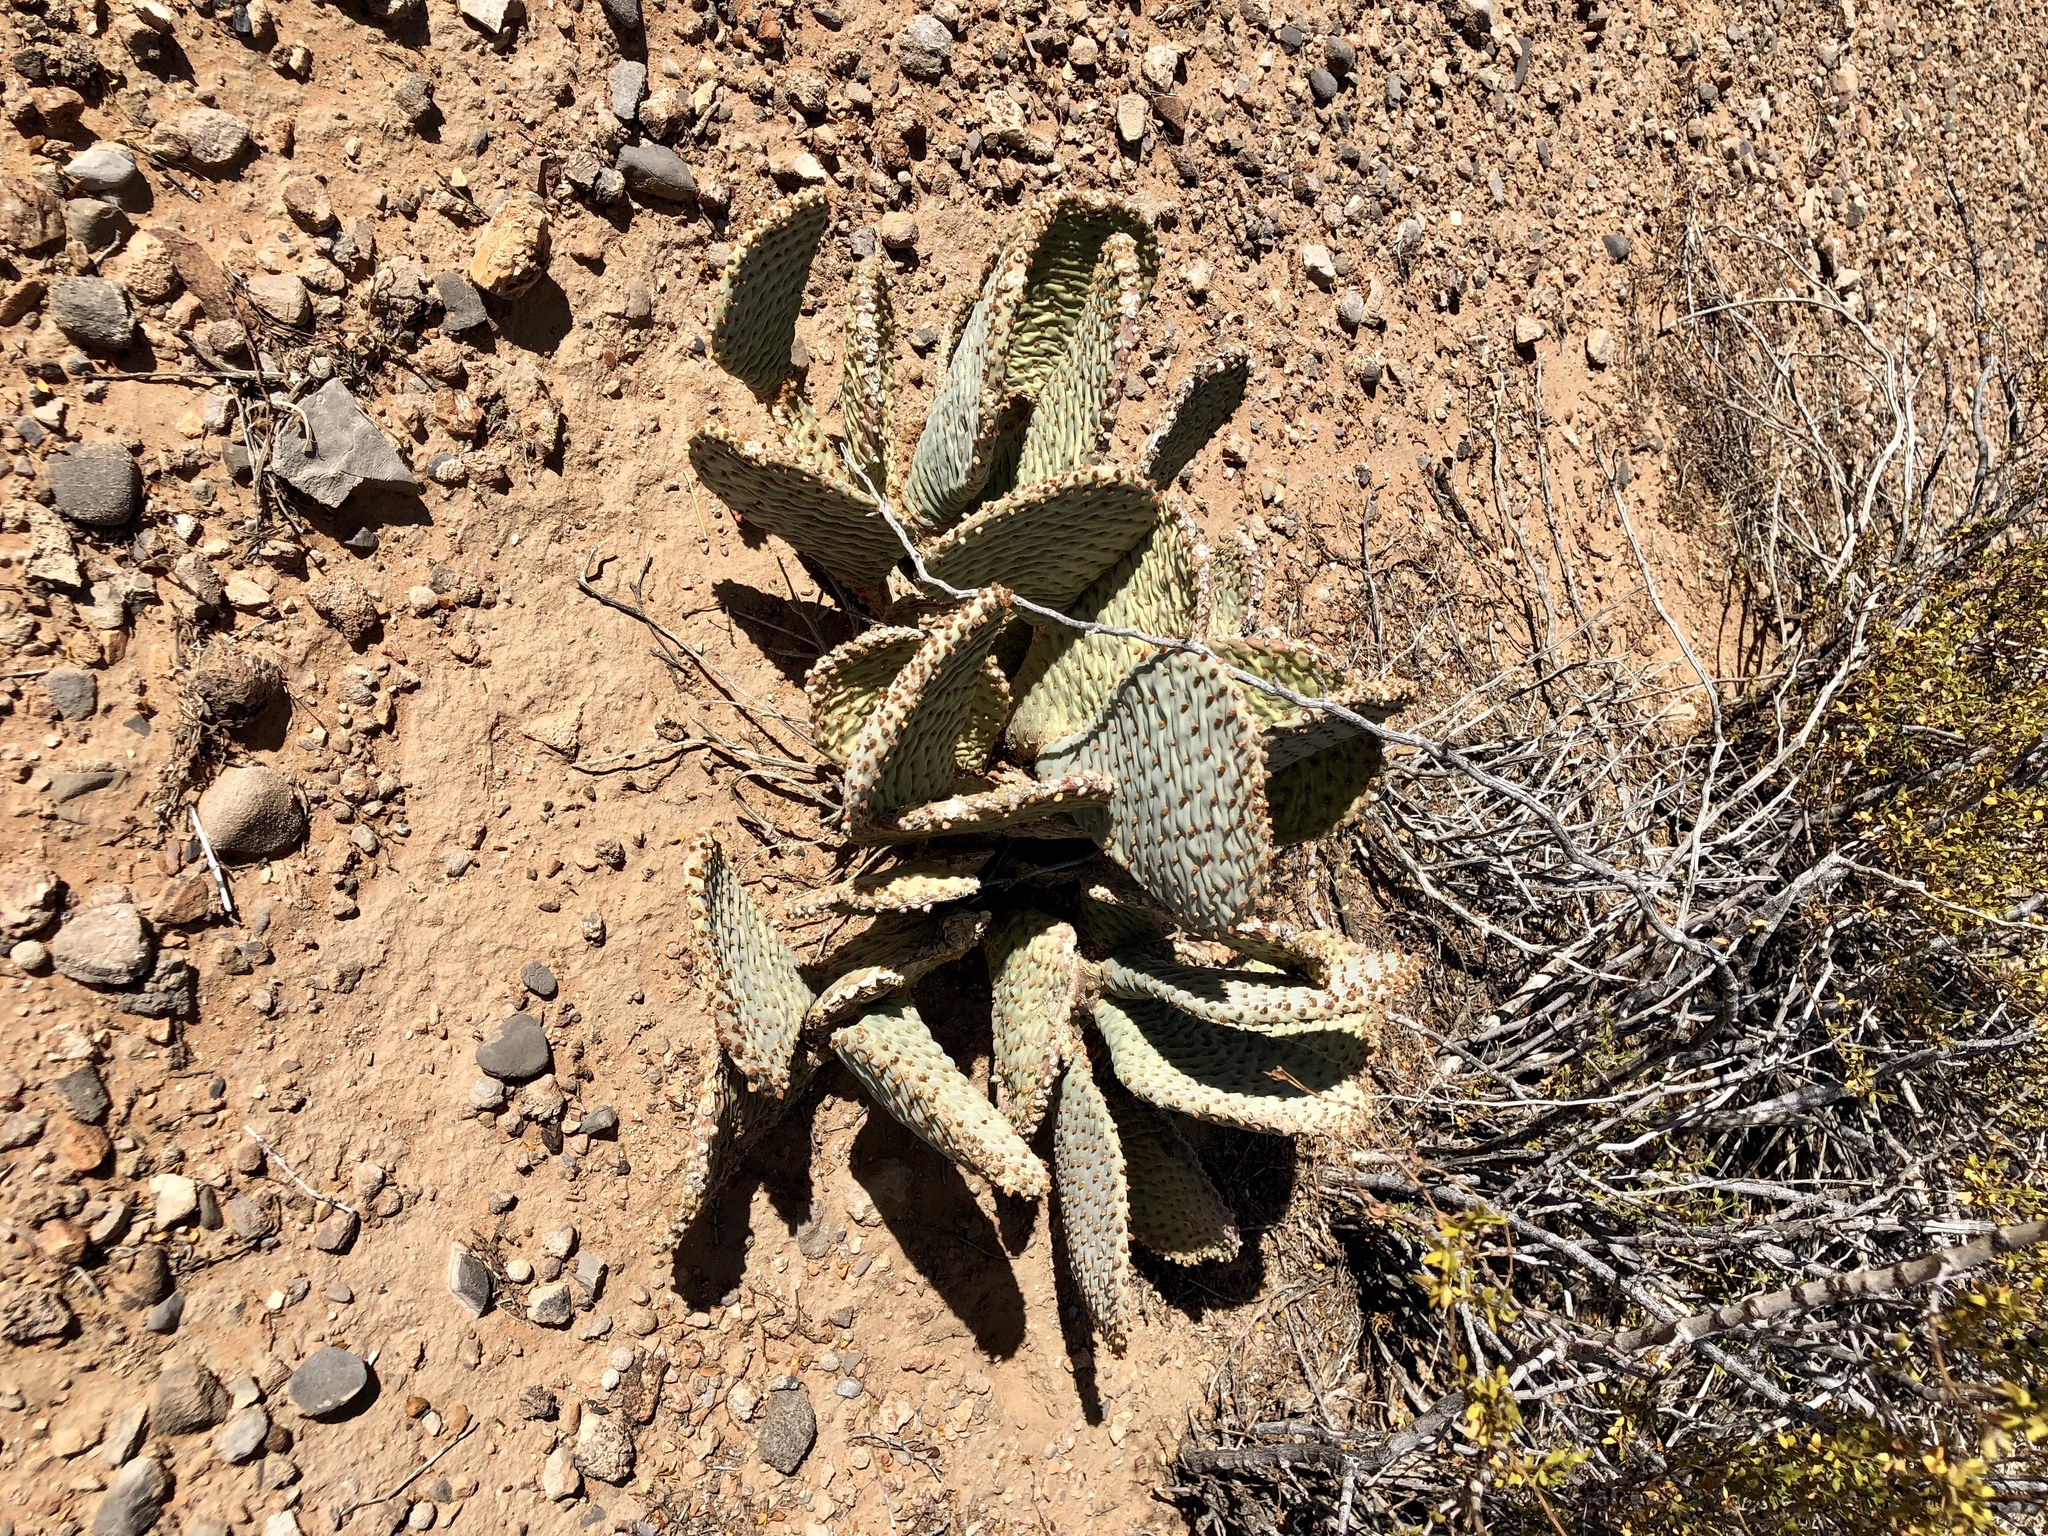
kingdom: Plantae
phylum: Tracheophyta
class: Magnoliopsida
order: Caryophyllales
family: Cactaceae
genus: Opuntia
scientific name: Opuntia basilaris
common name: Beavertail prickly-pear
